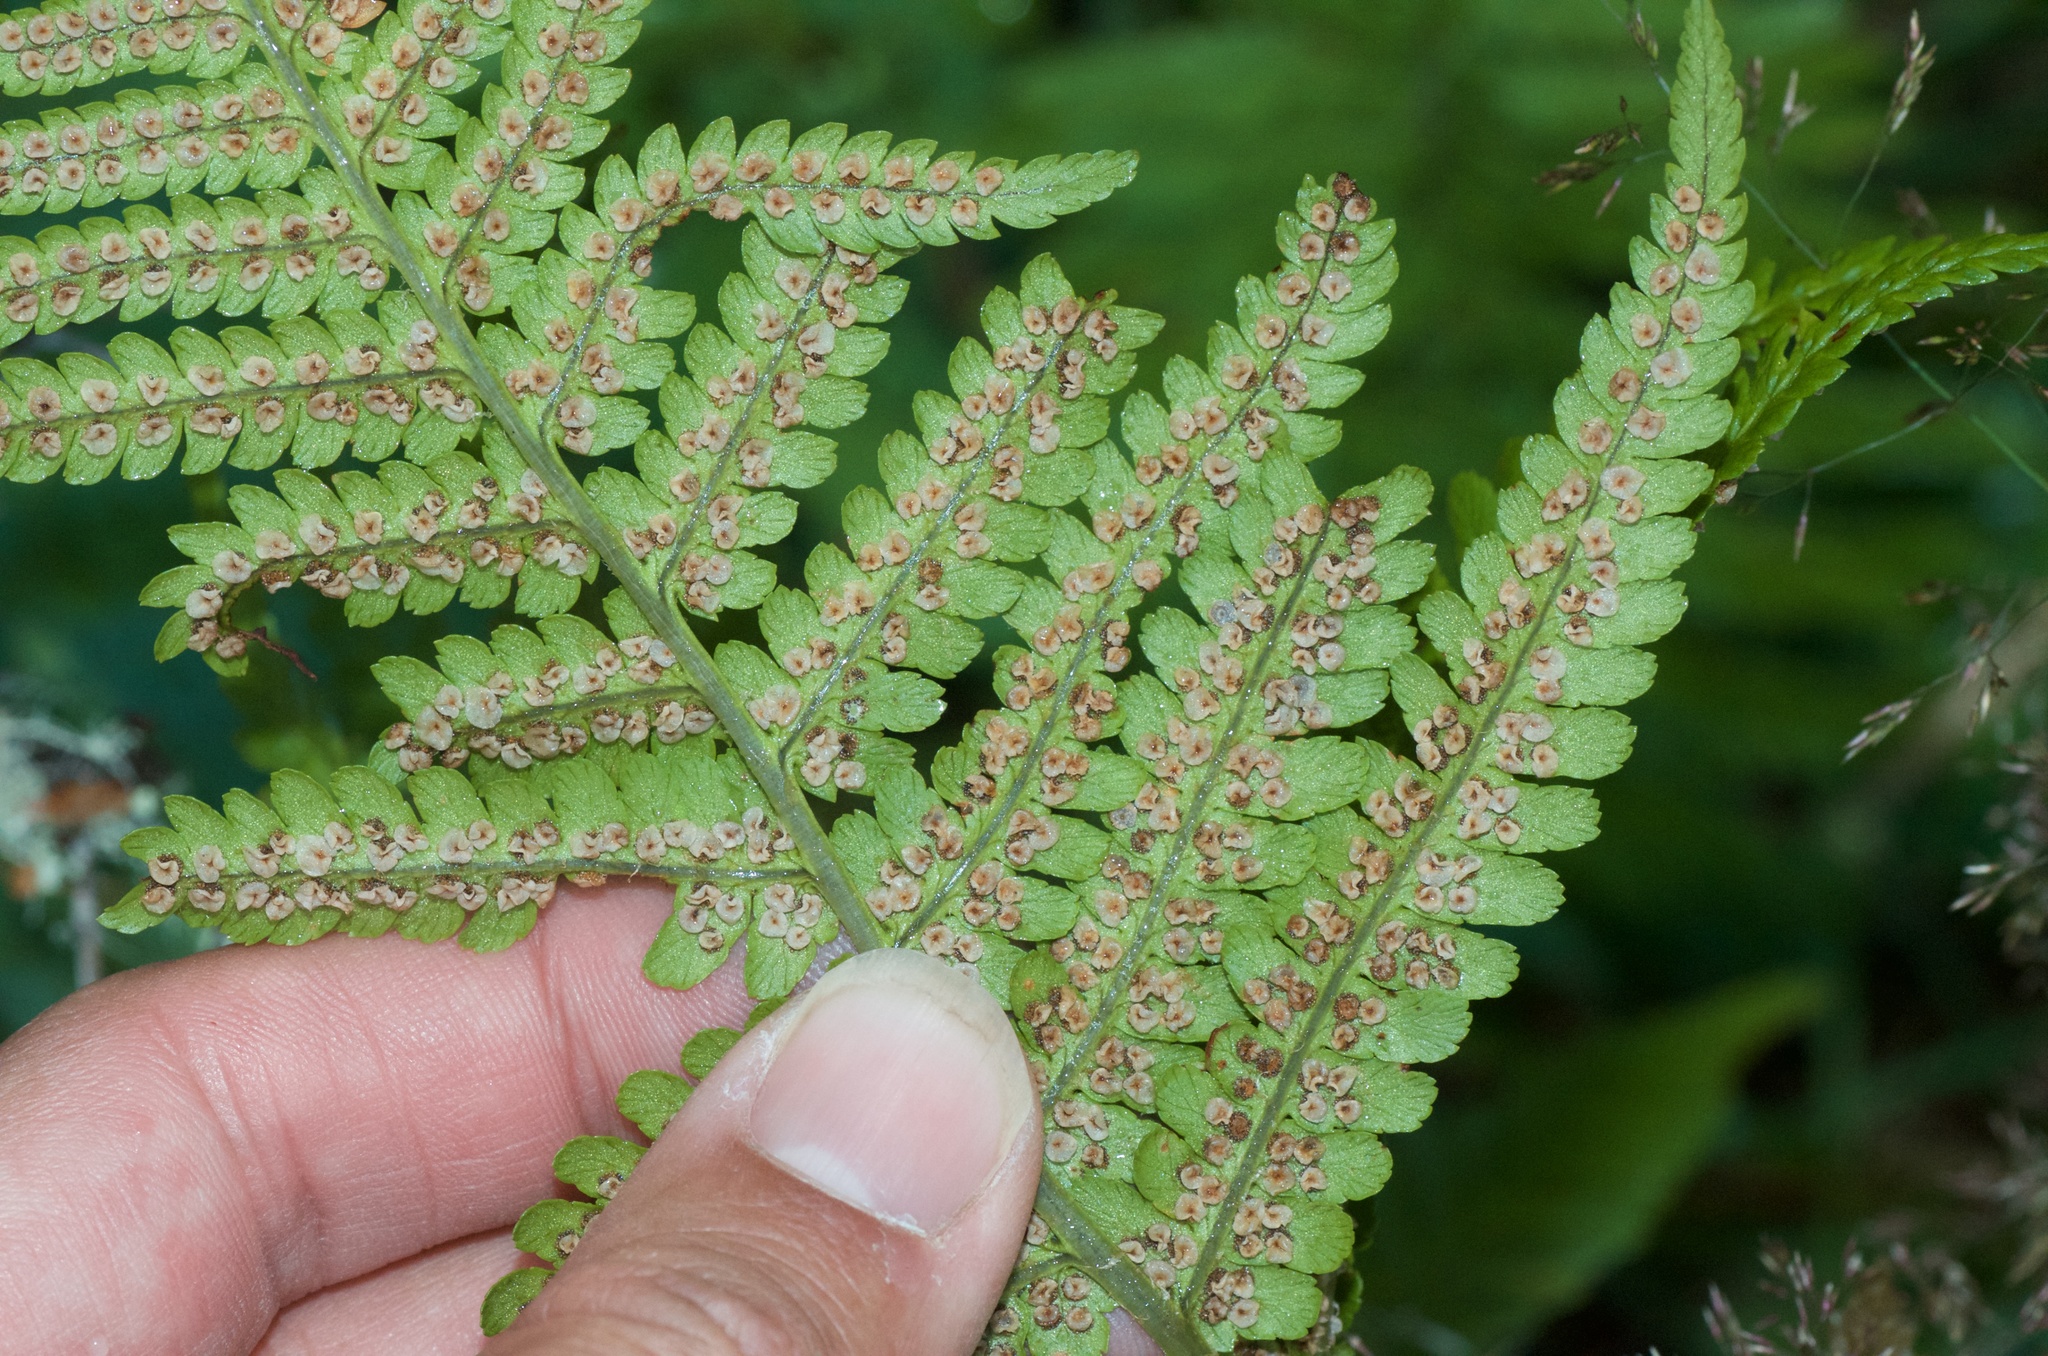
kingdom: Plantae
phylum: Tracheophyta
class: Polypodiopsida
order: Polypodiales
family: Dryopteridaceae
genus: Dryopteris
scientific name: Dryopteris filix-mas
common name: Male fern
